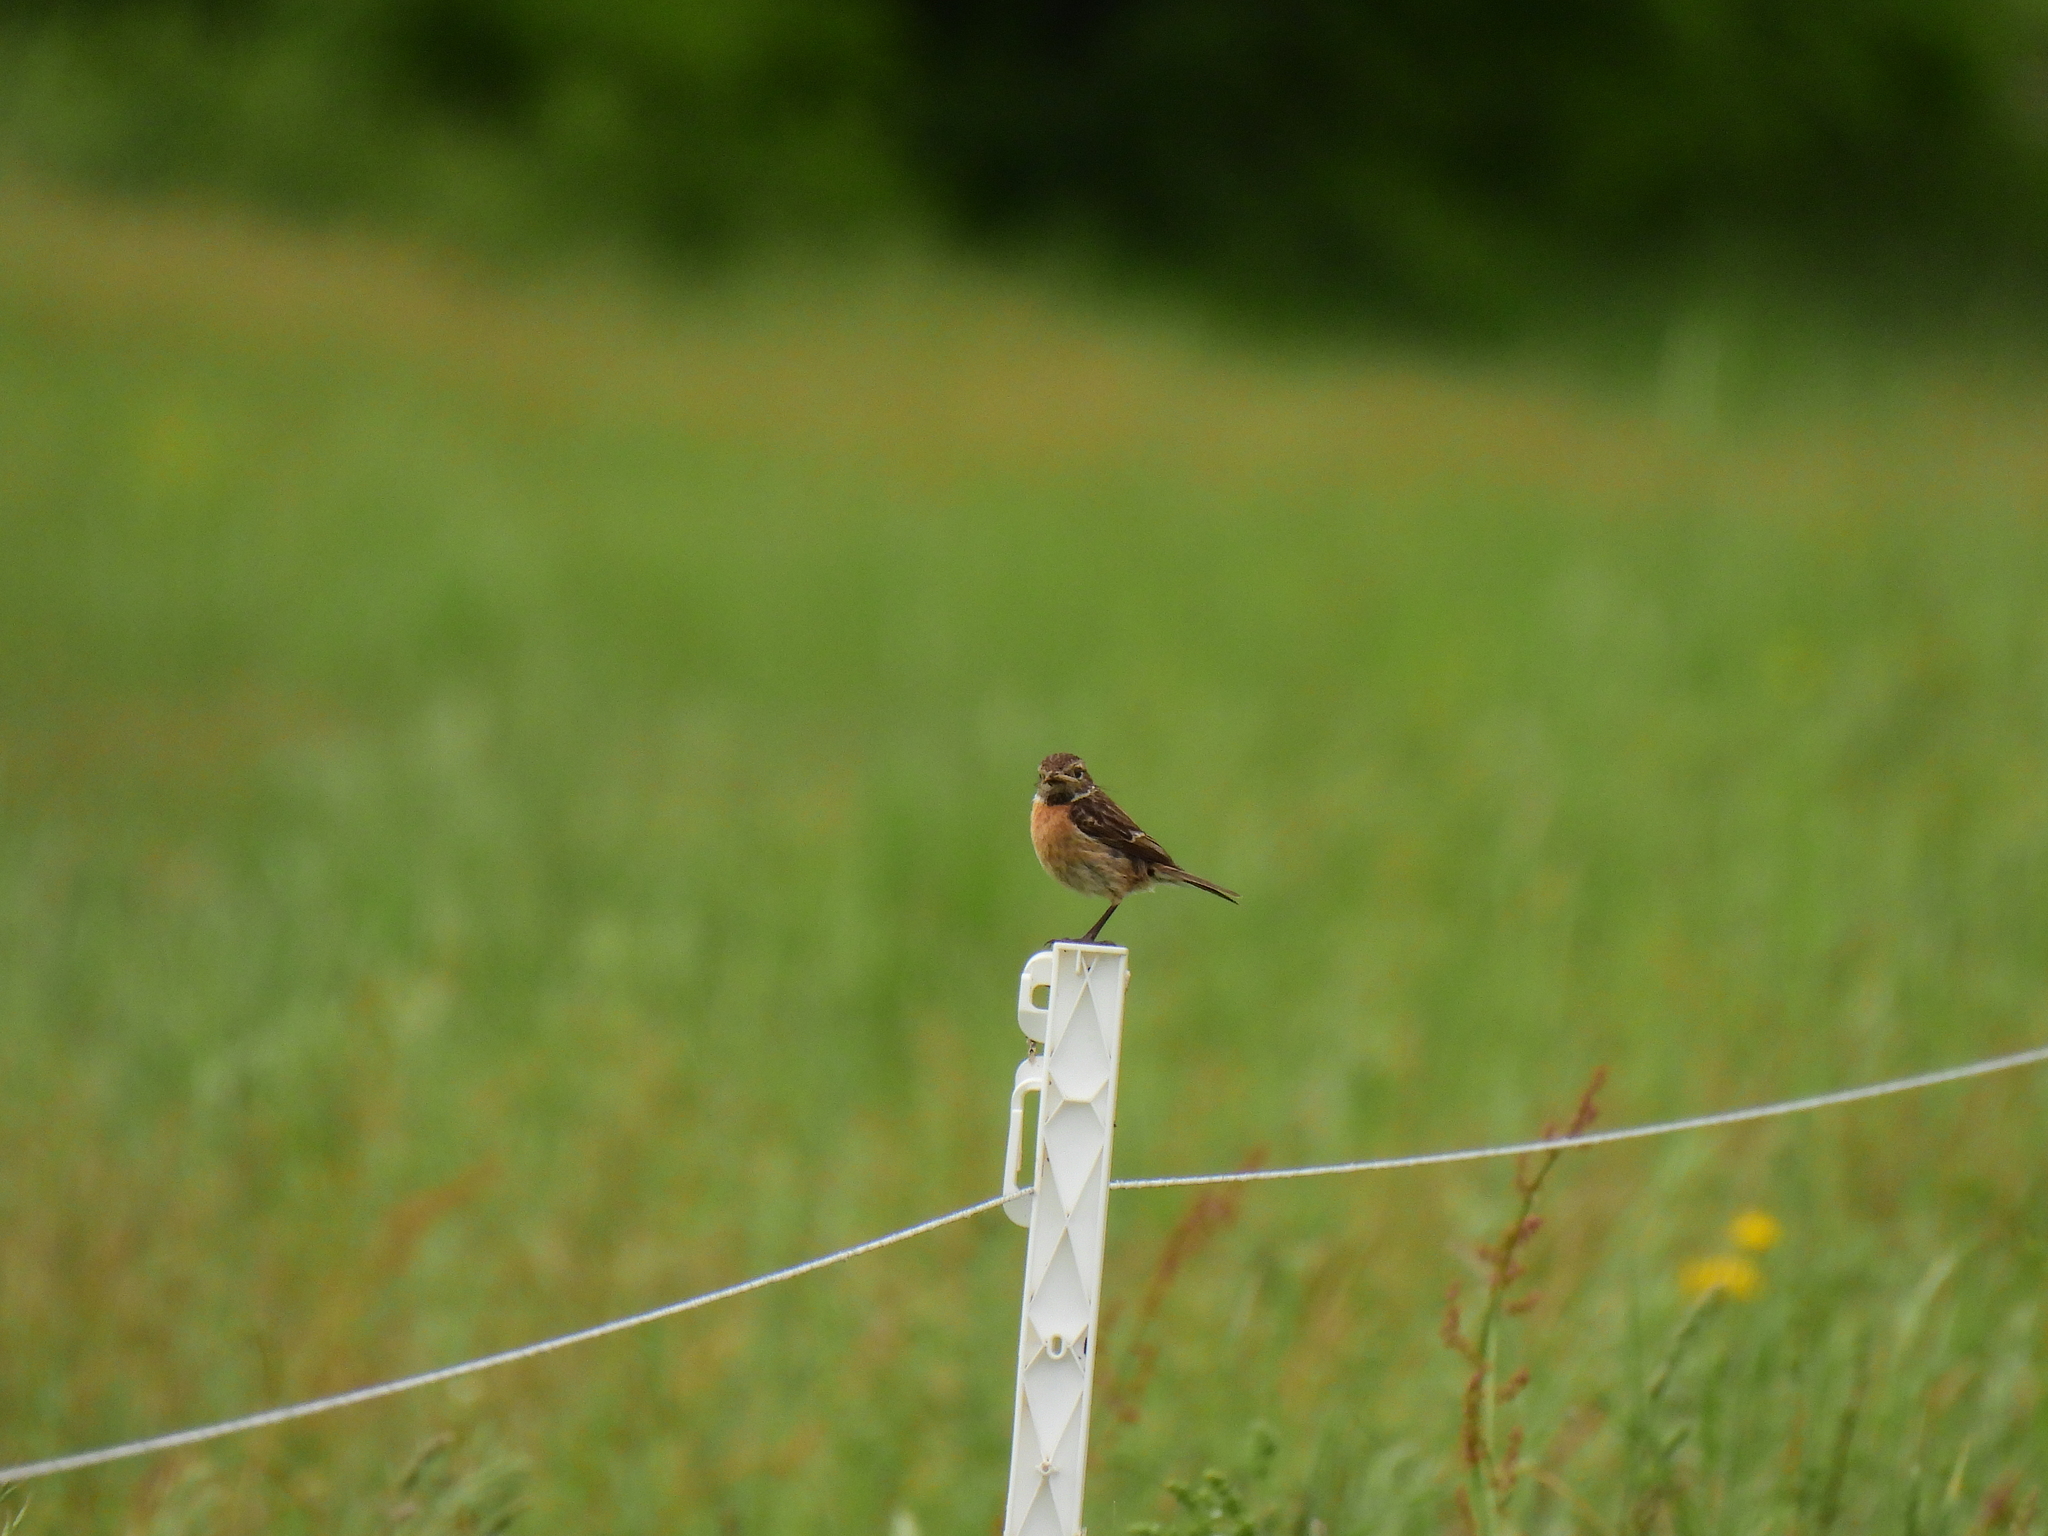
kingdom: Animalia
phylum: Chordata
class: Aves
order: Passeriformes
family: Muscicapidae
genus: Saxicola
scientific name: Saxicola rubicola
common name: European stonechat
